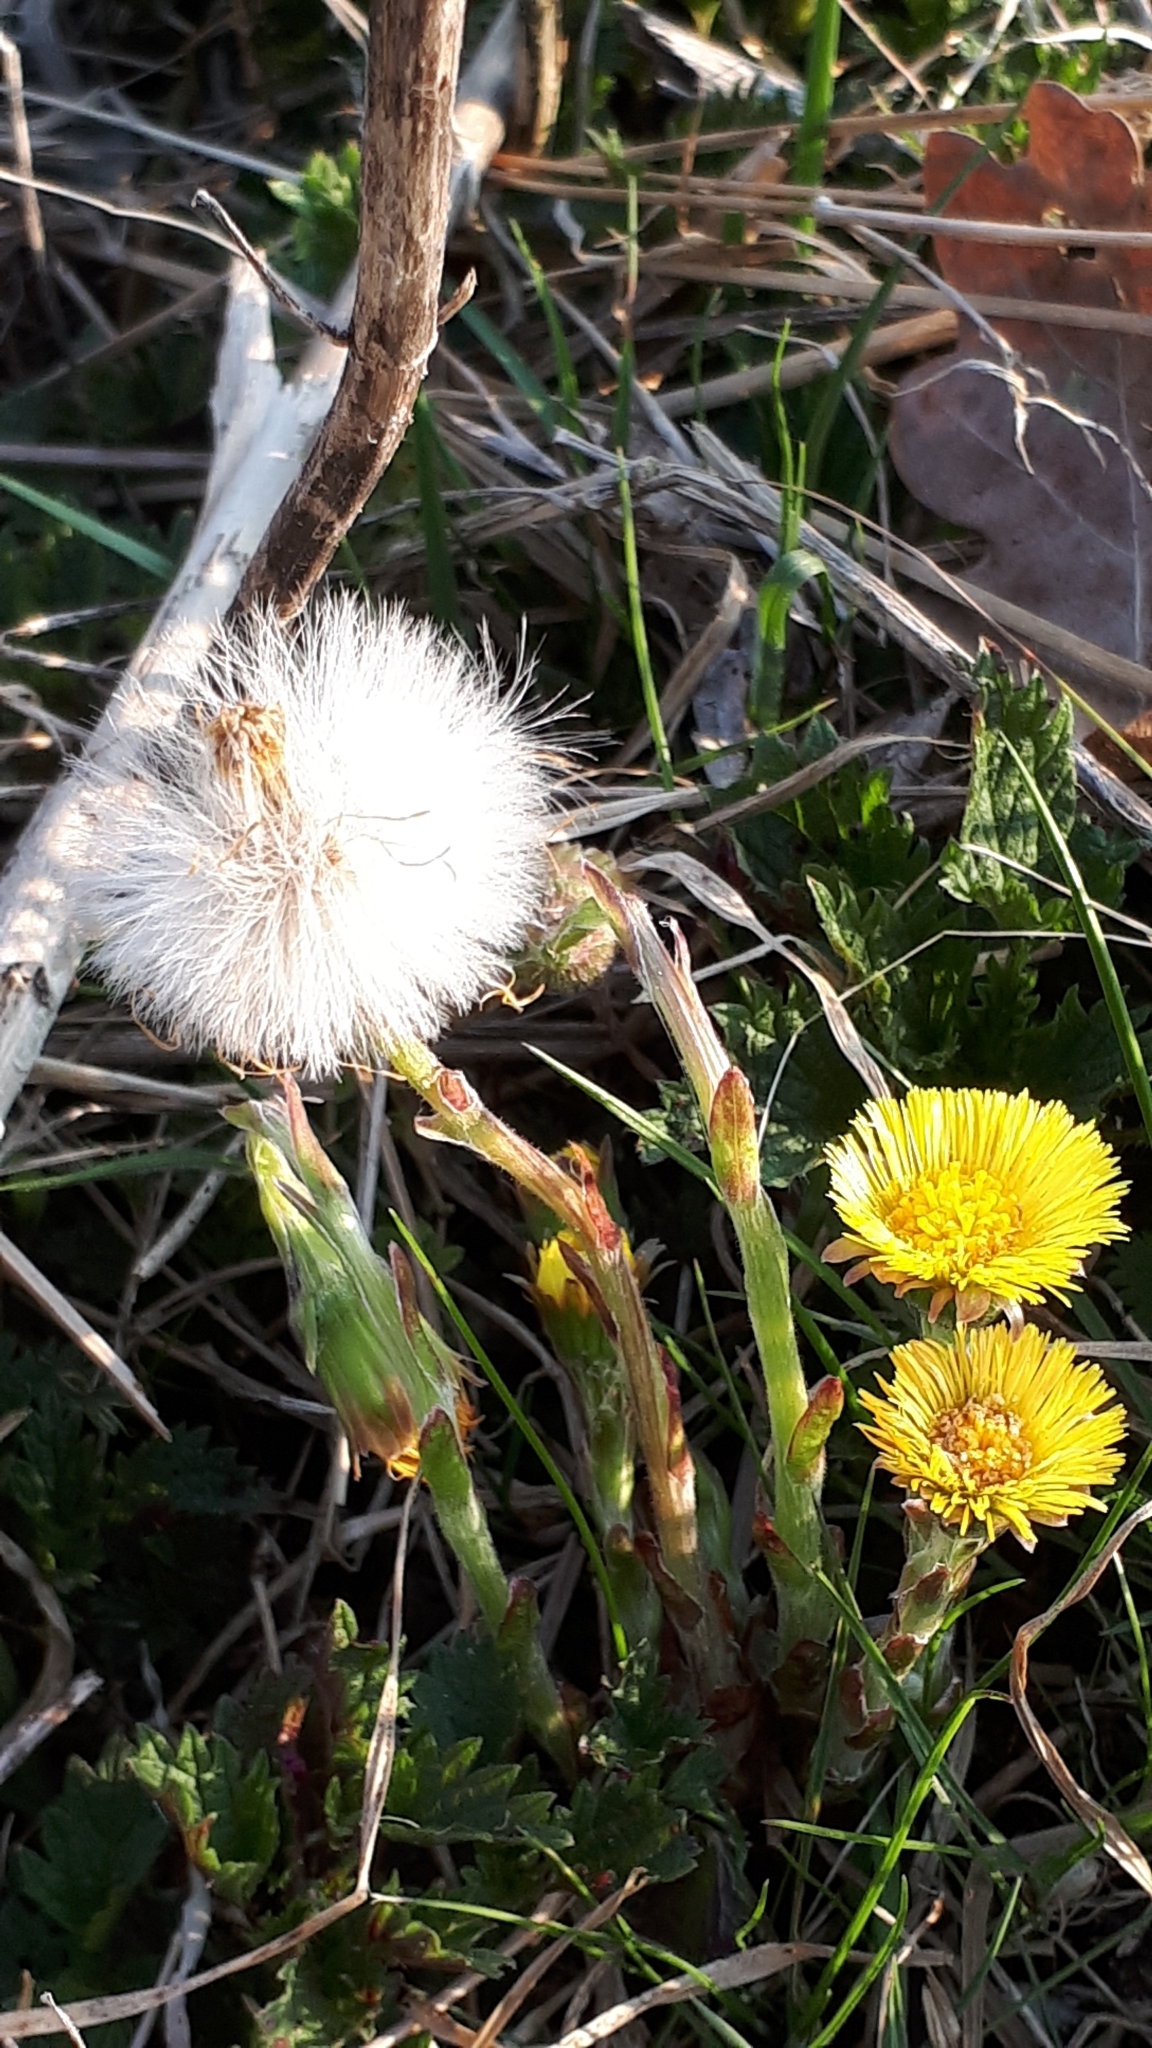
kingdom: Plantae
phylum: Tracheophyta
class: Magnoliopsida
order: Asterales
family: Asteraceae
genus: Tussilago
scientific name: Tussilago farfara
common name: Coltsfoot
